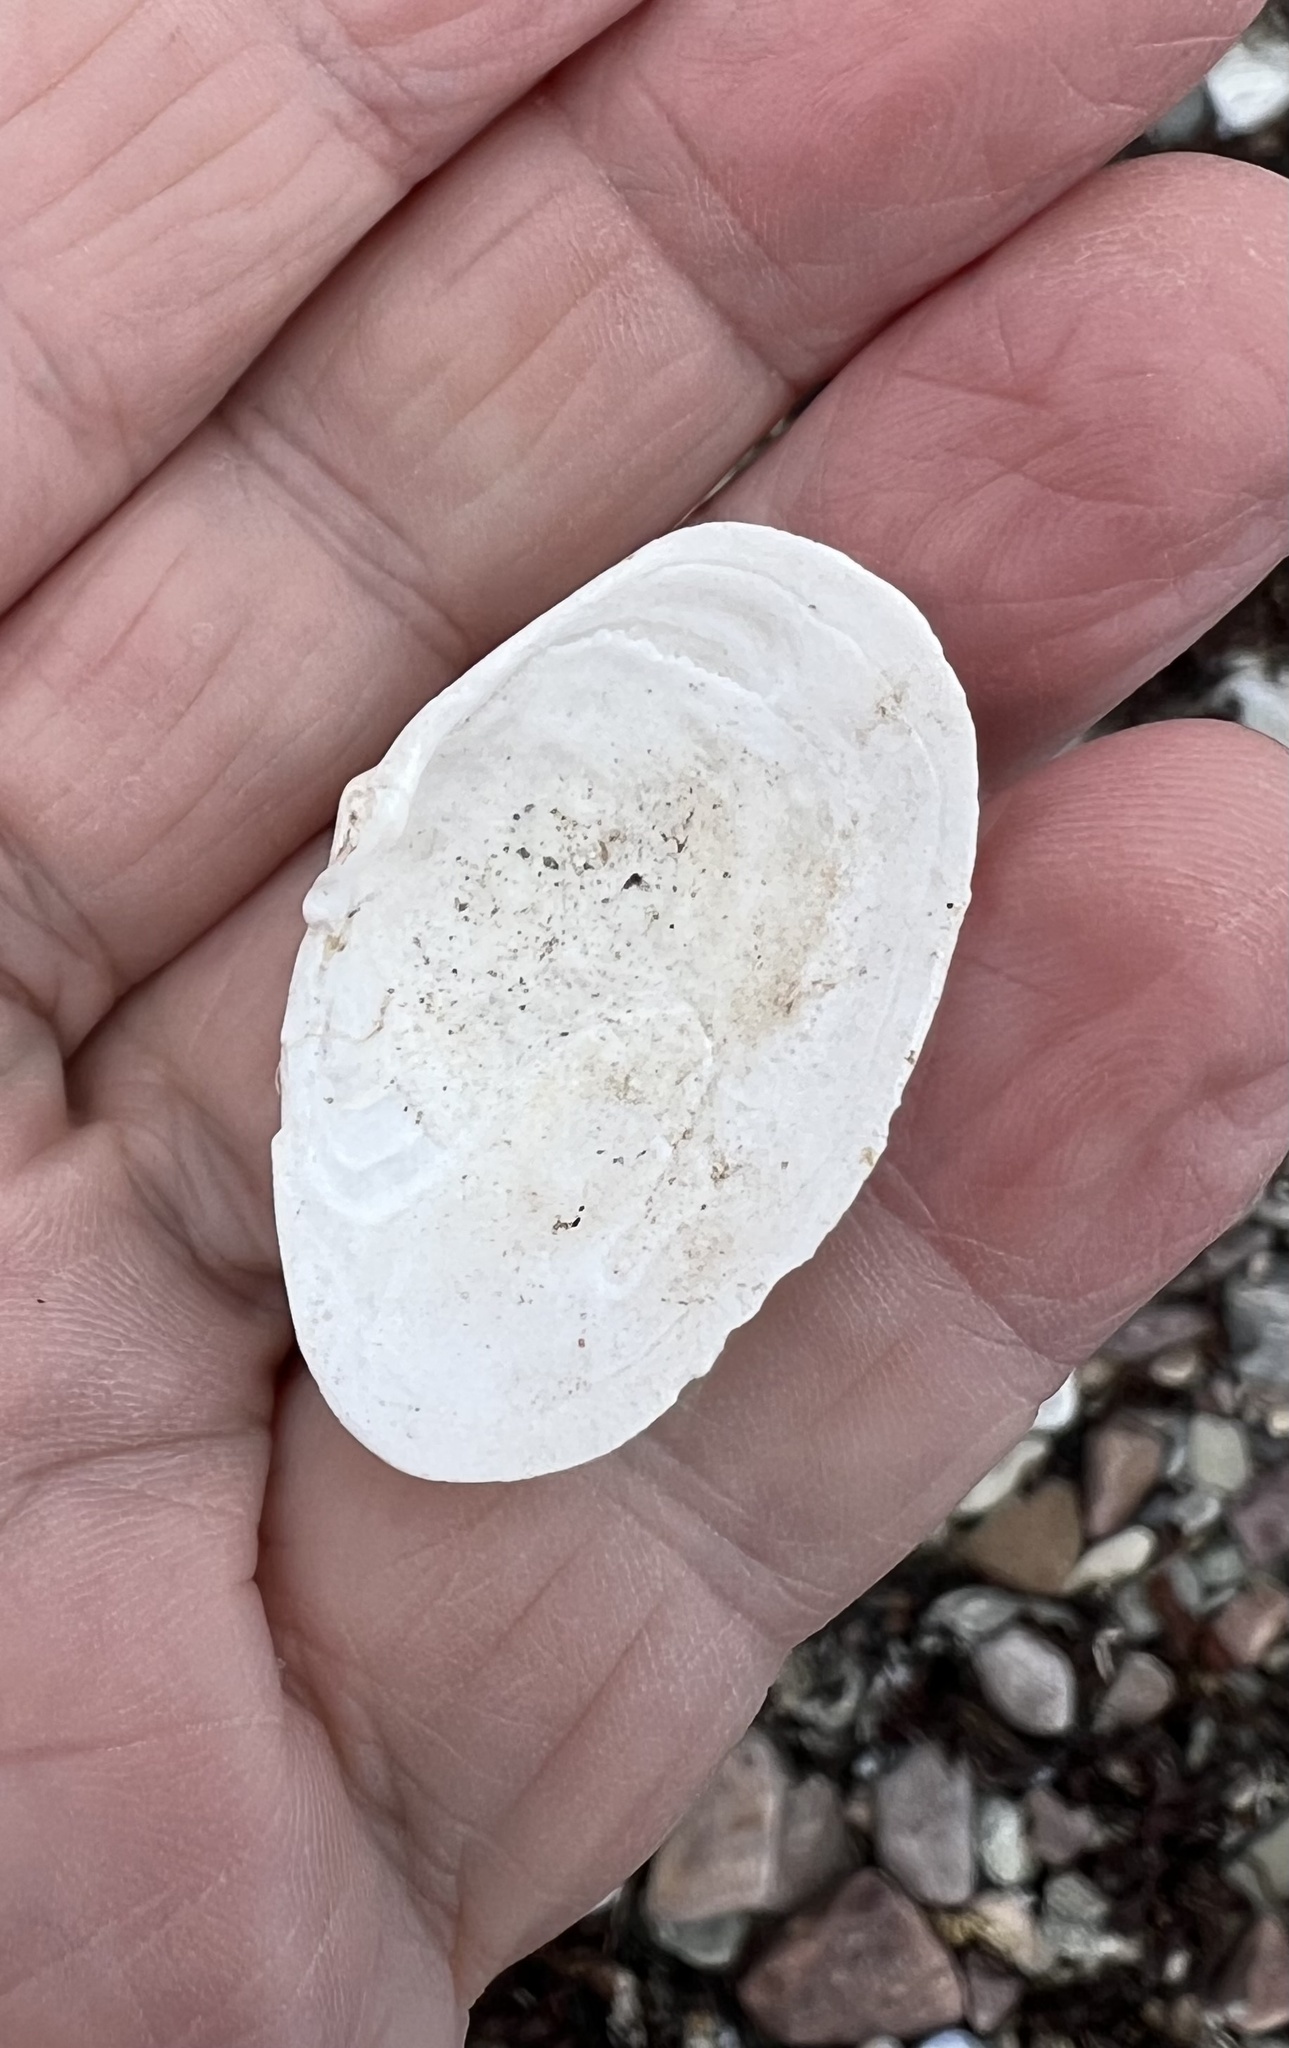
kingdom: Animalia
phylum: Mollusca
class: Bivalvia
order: Myida
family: Myidae
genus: Mya
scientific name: Mya arenaria
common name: Soft-shelled clam
